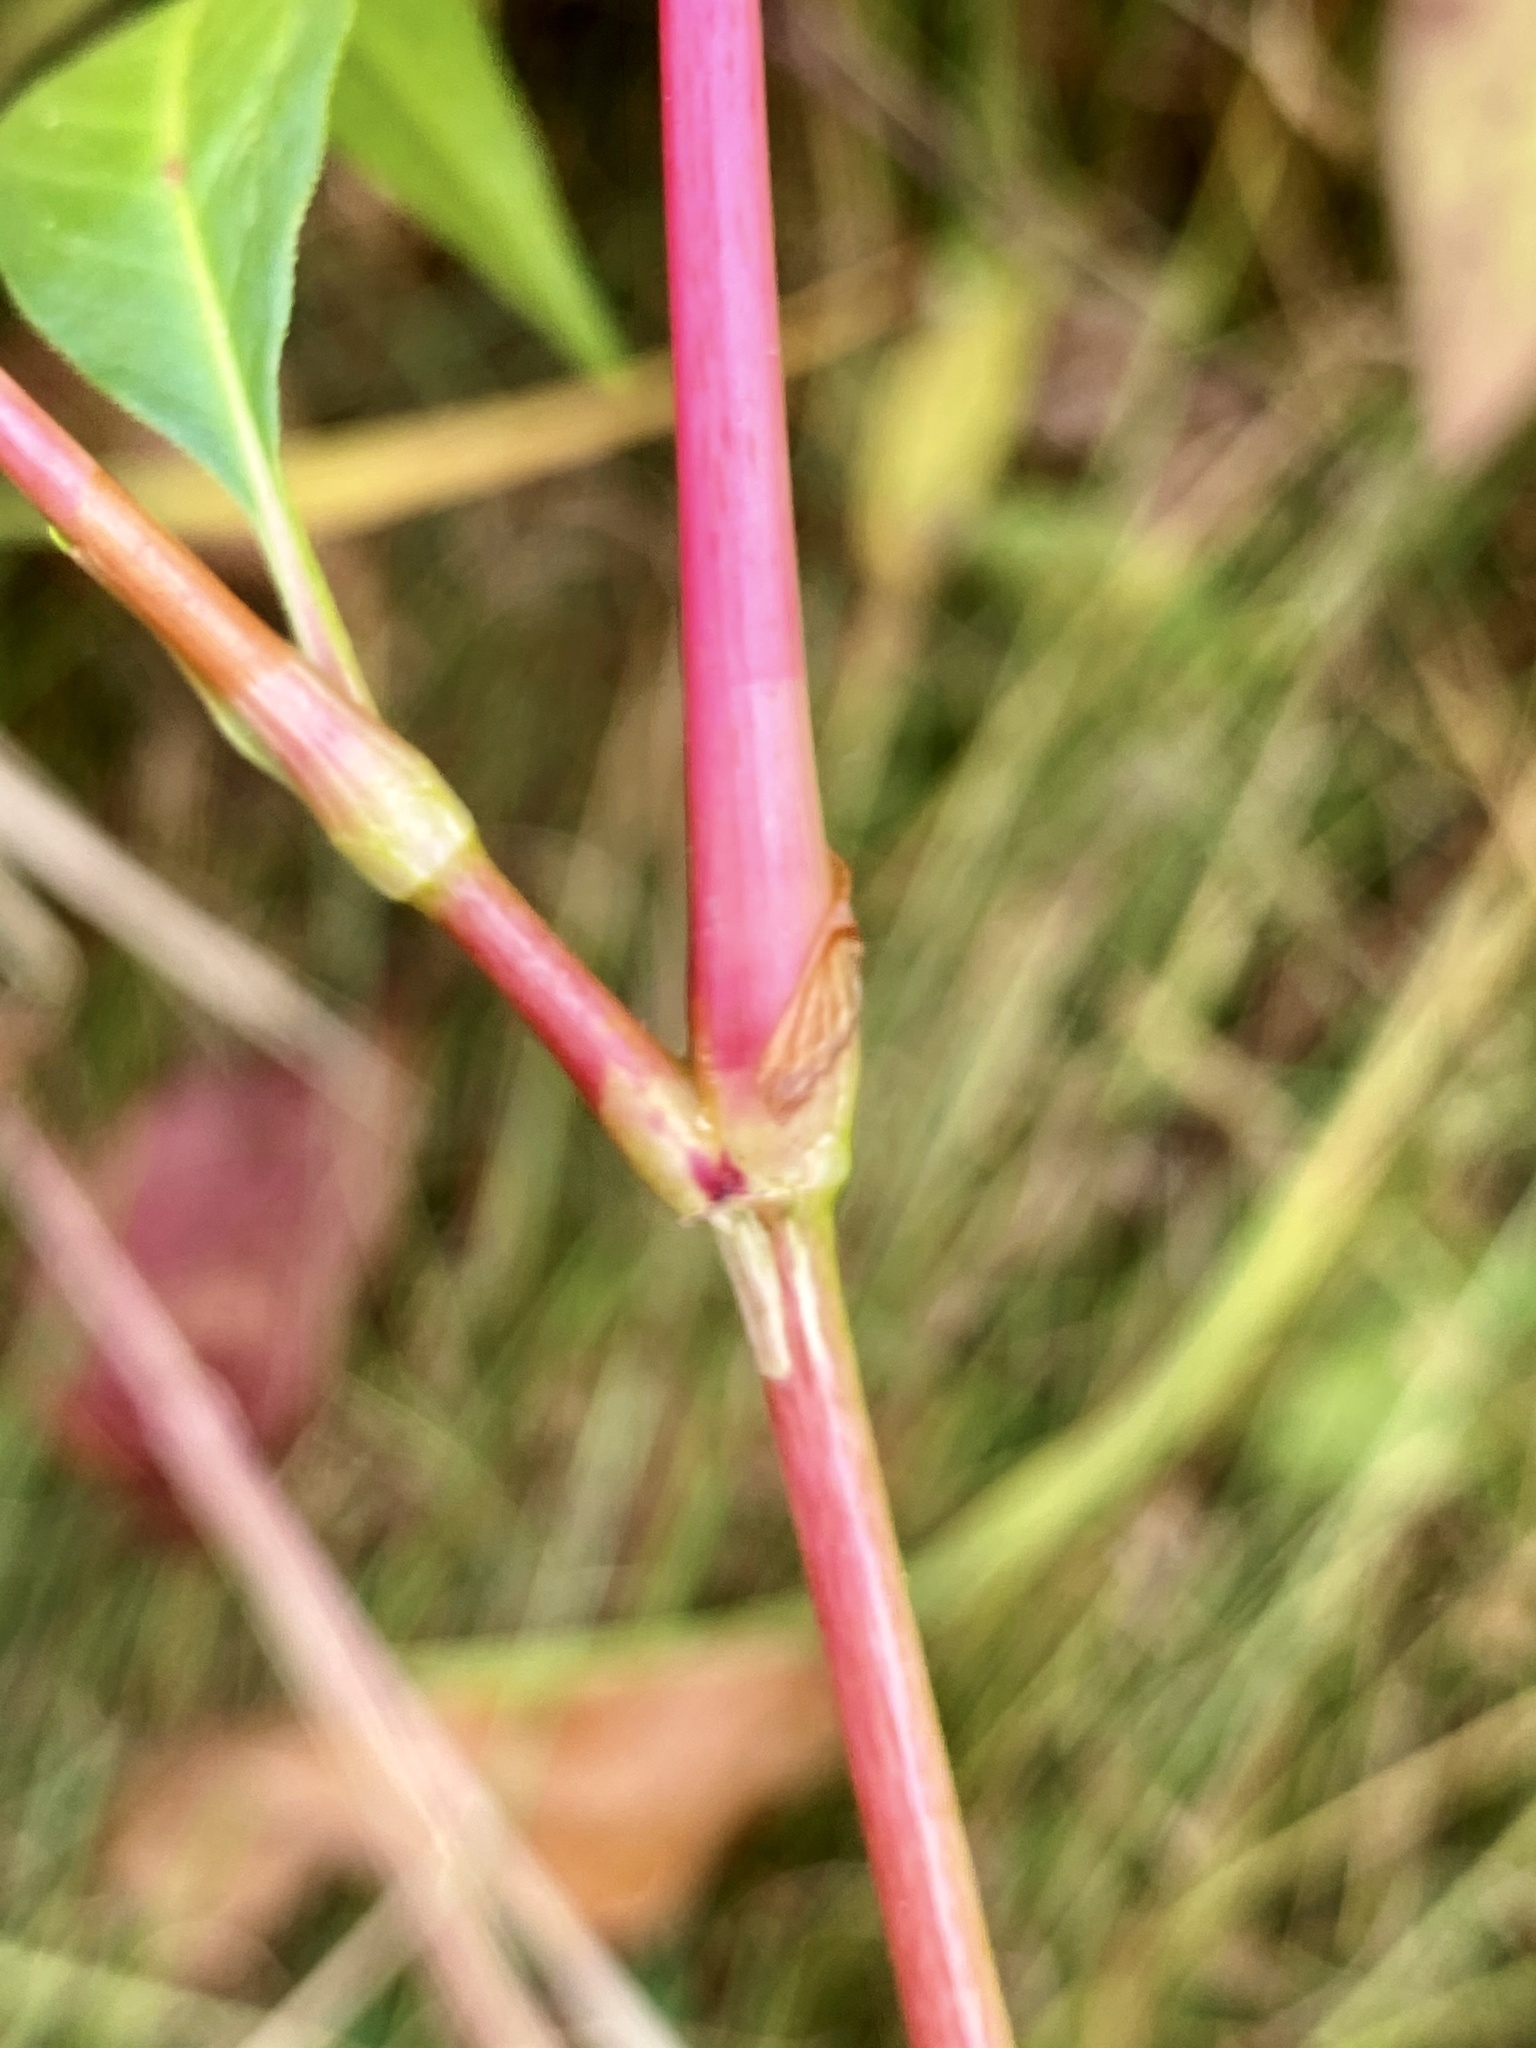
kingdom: Plantae
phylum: Tracheophyta
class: Magnoliopsida
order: Caryophyllales
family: Polygonaceae
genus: Persicaria
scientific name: Persicaria pensylvanica
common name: Pinkweed
